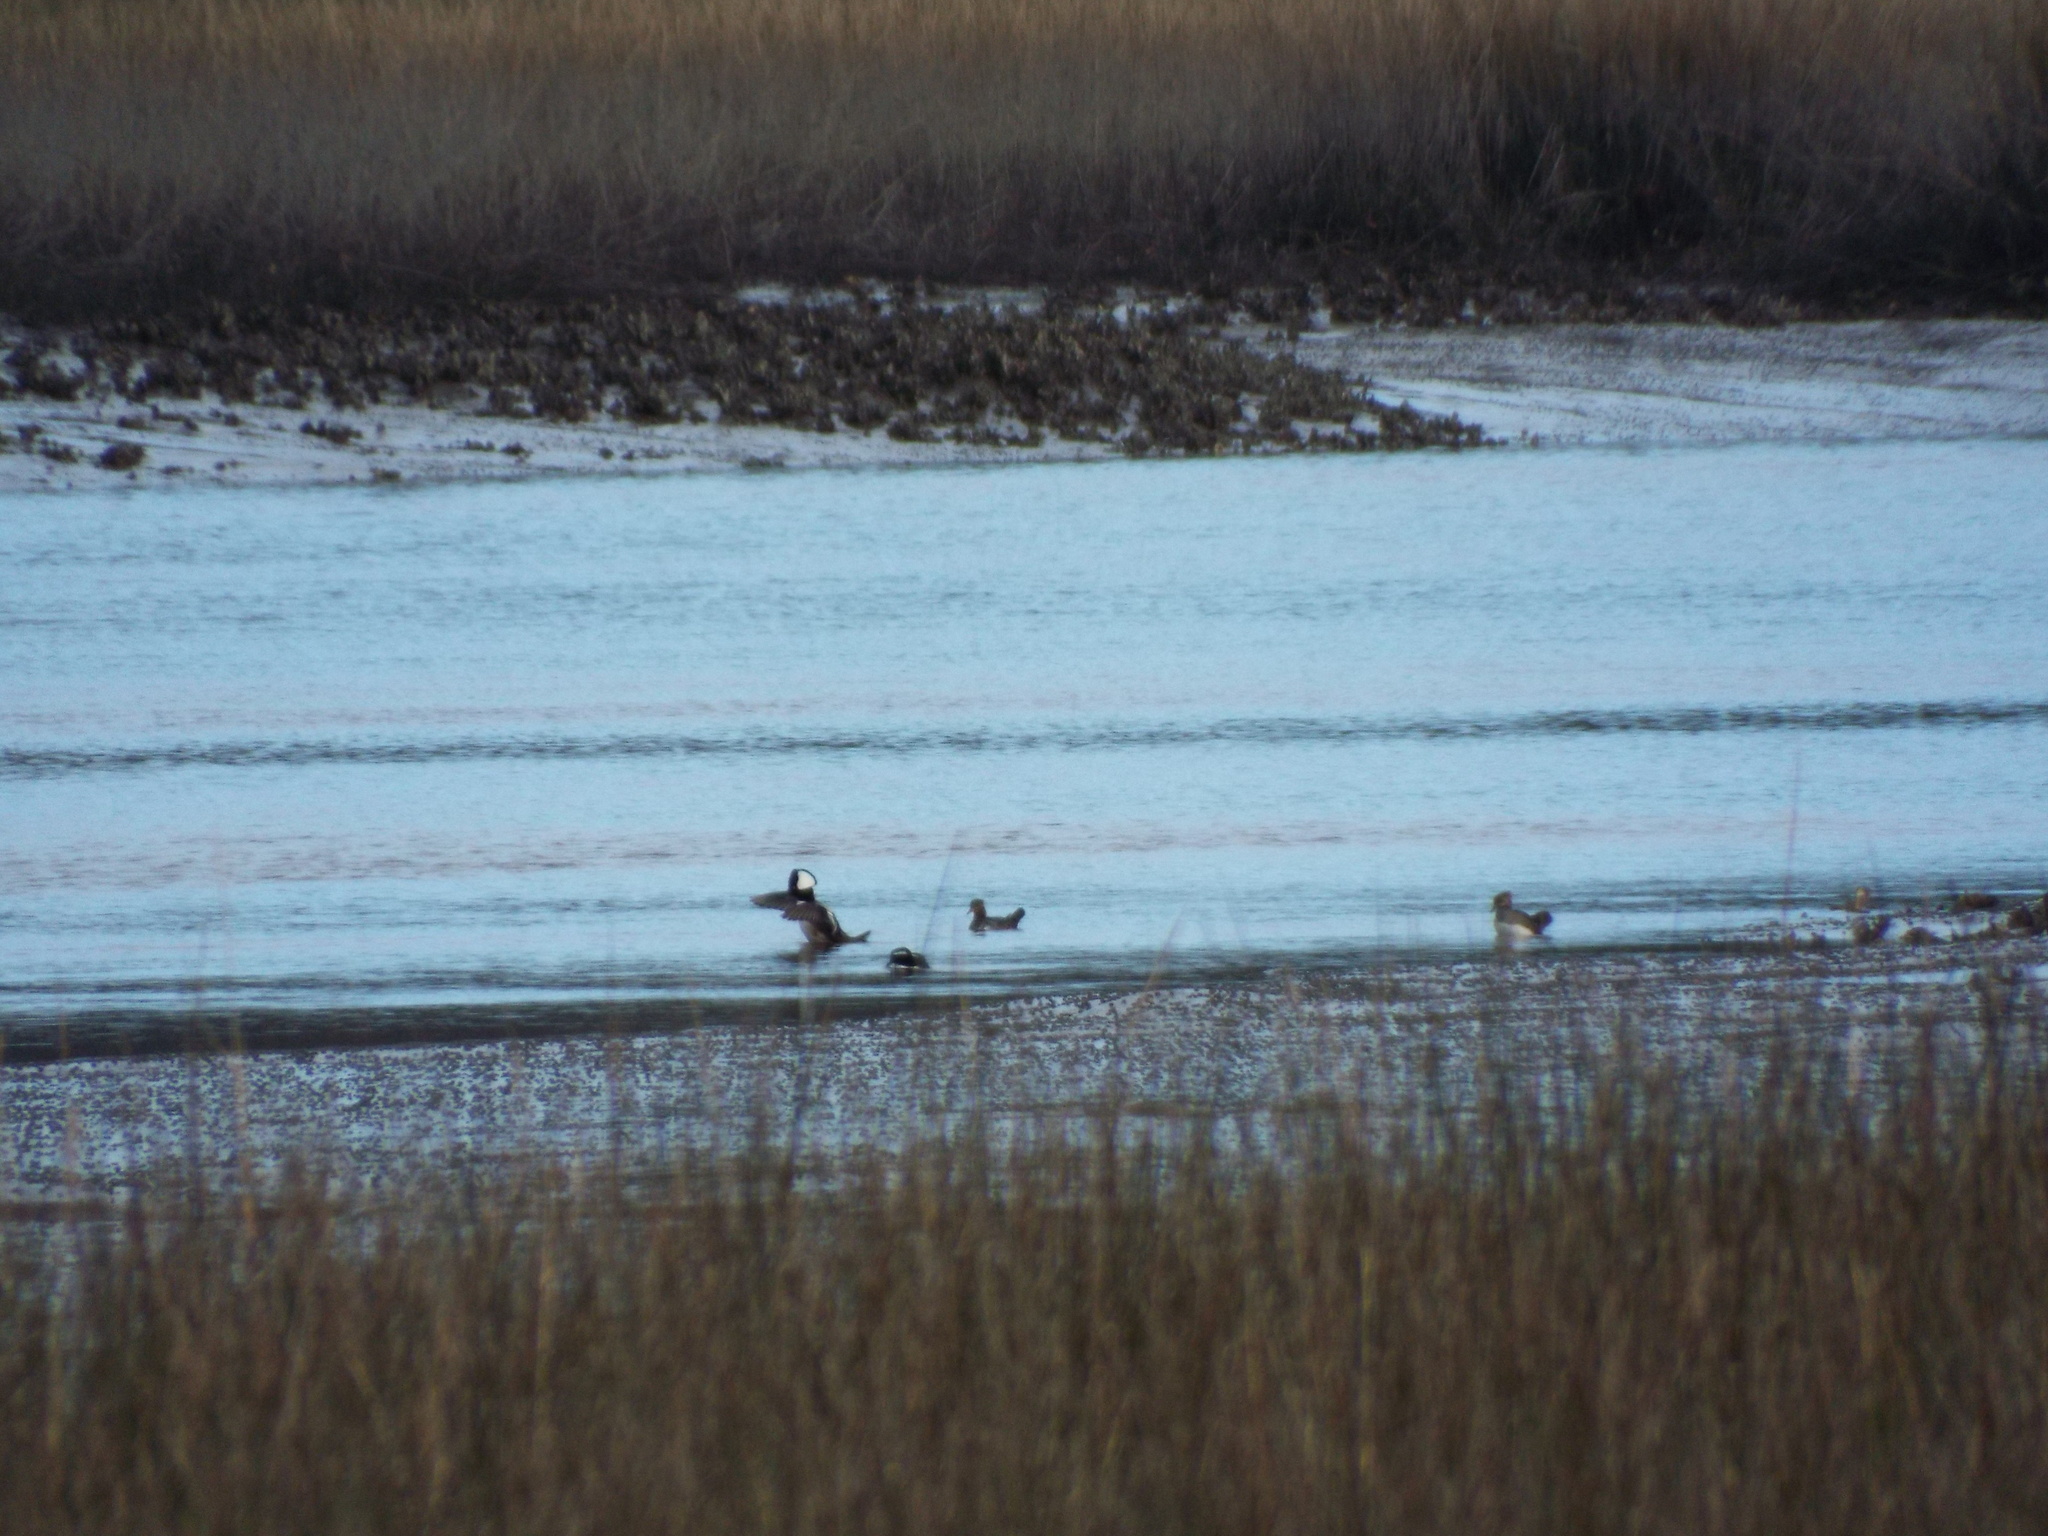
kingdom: Animalia
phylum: Chordata
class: Aves
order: Anseriformes
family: Anatidae
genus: Lophodytes
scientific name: Lophodytes cucullatus
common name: Hooded merganser
